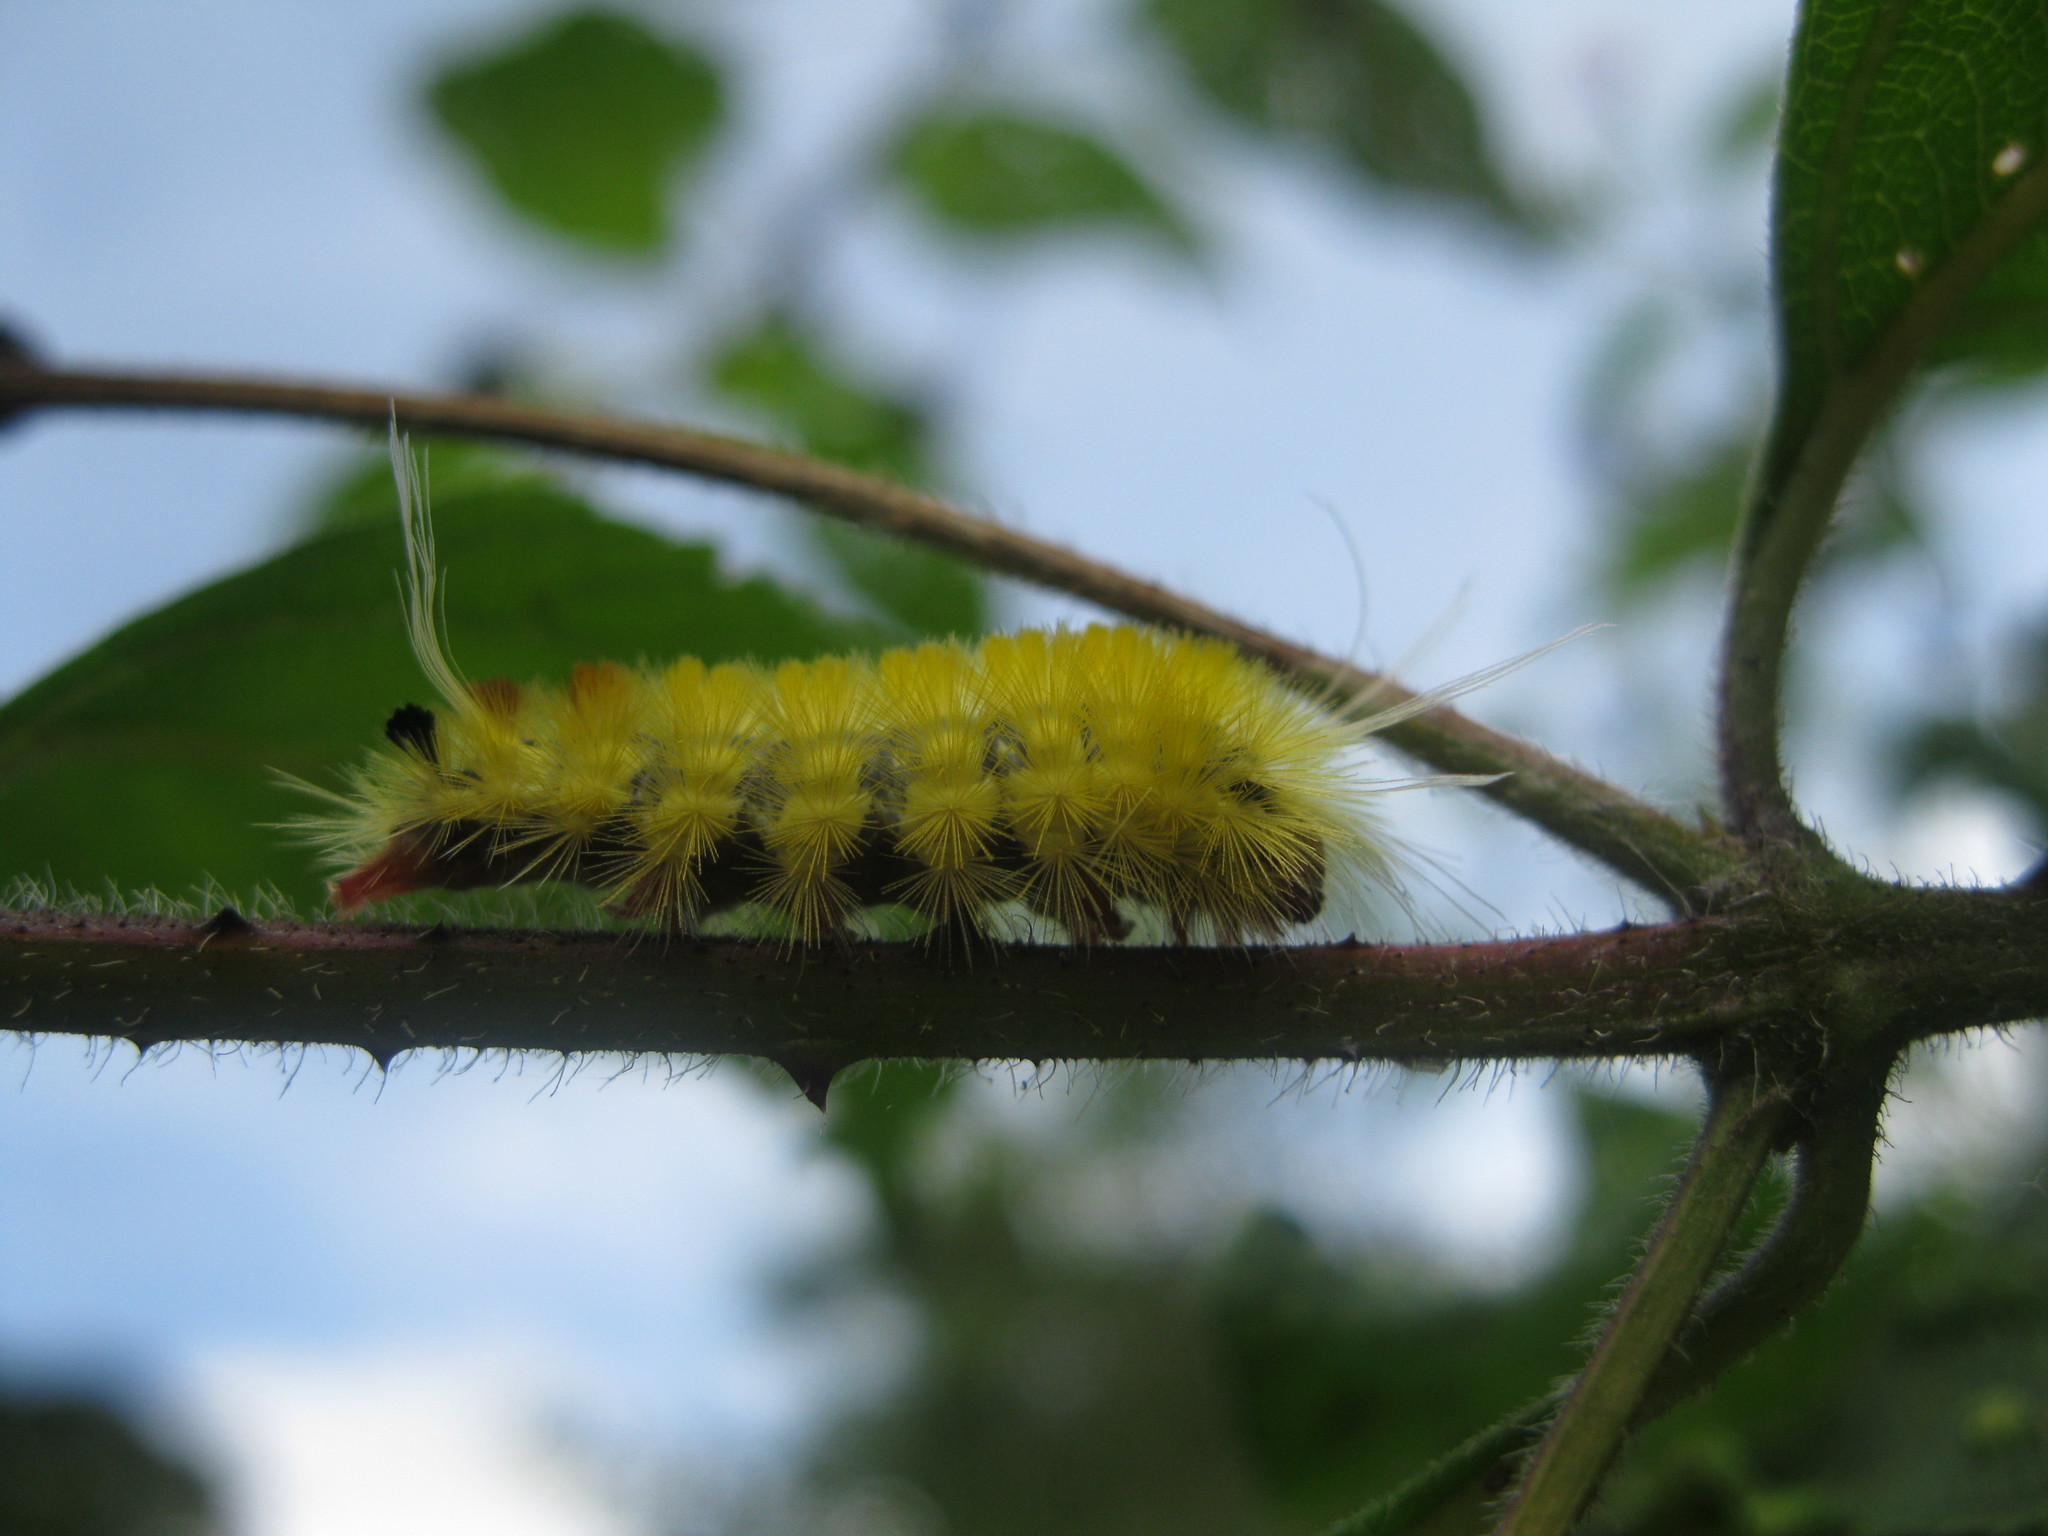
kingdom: Animalia
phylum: Arthropoda
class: Insecta
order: Lepidoptera
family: Erebidae
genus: Lophocampa
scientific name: Lophocampa modesta
